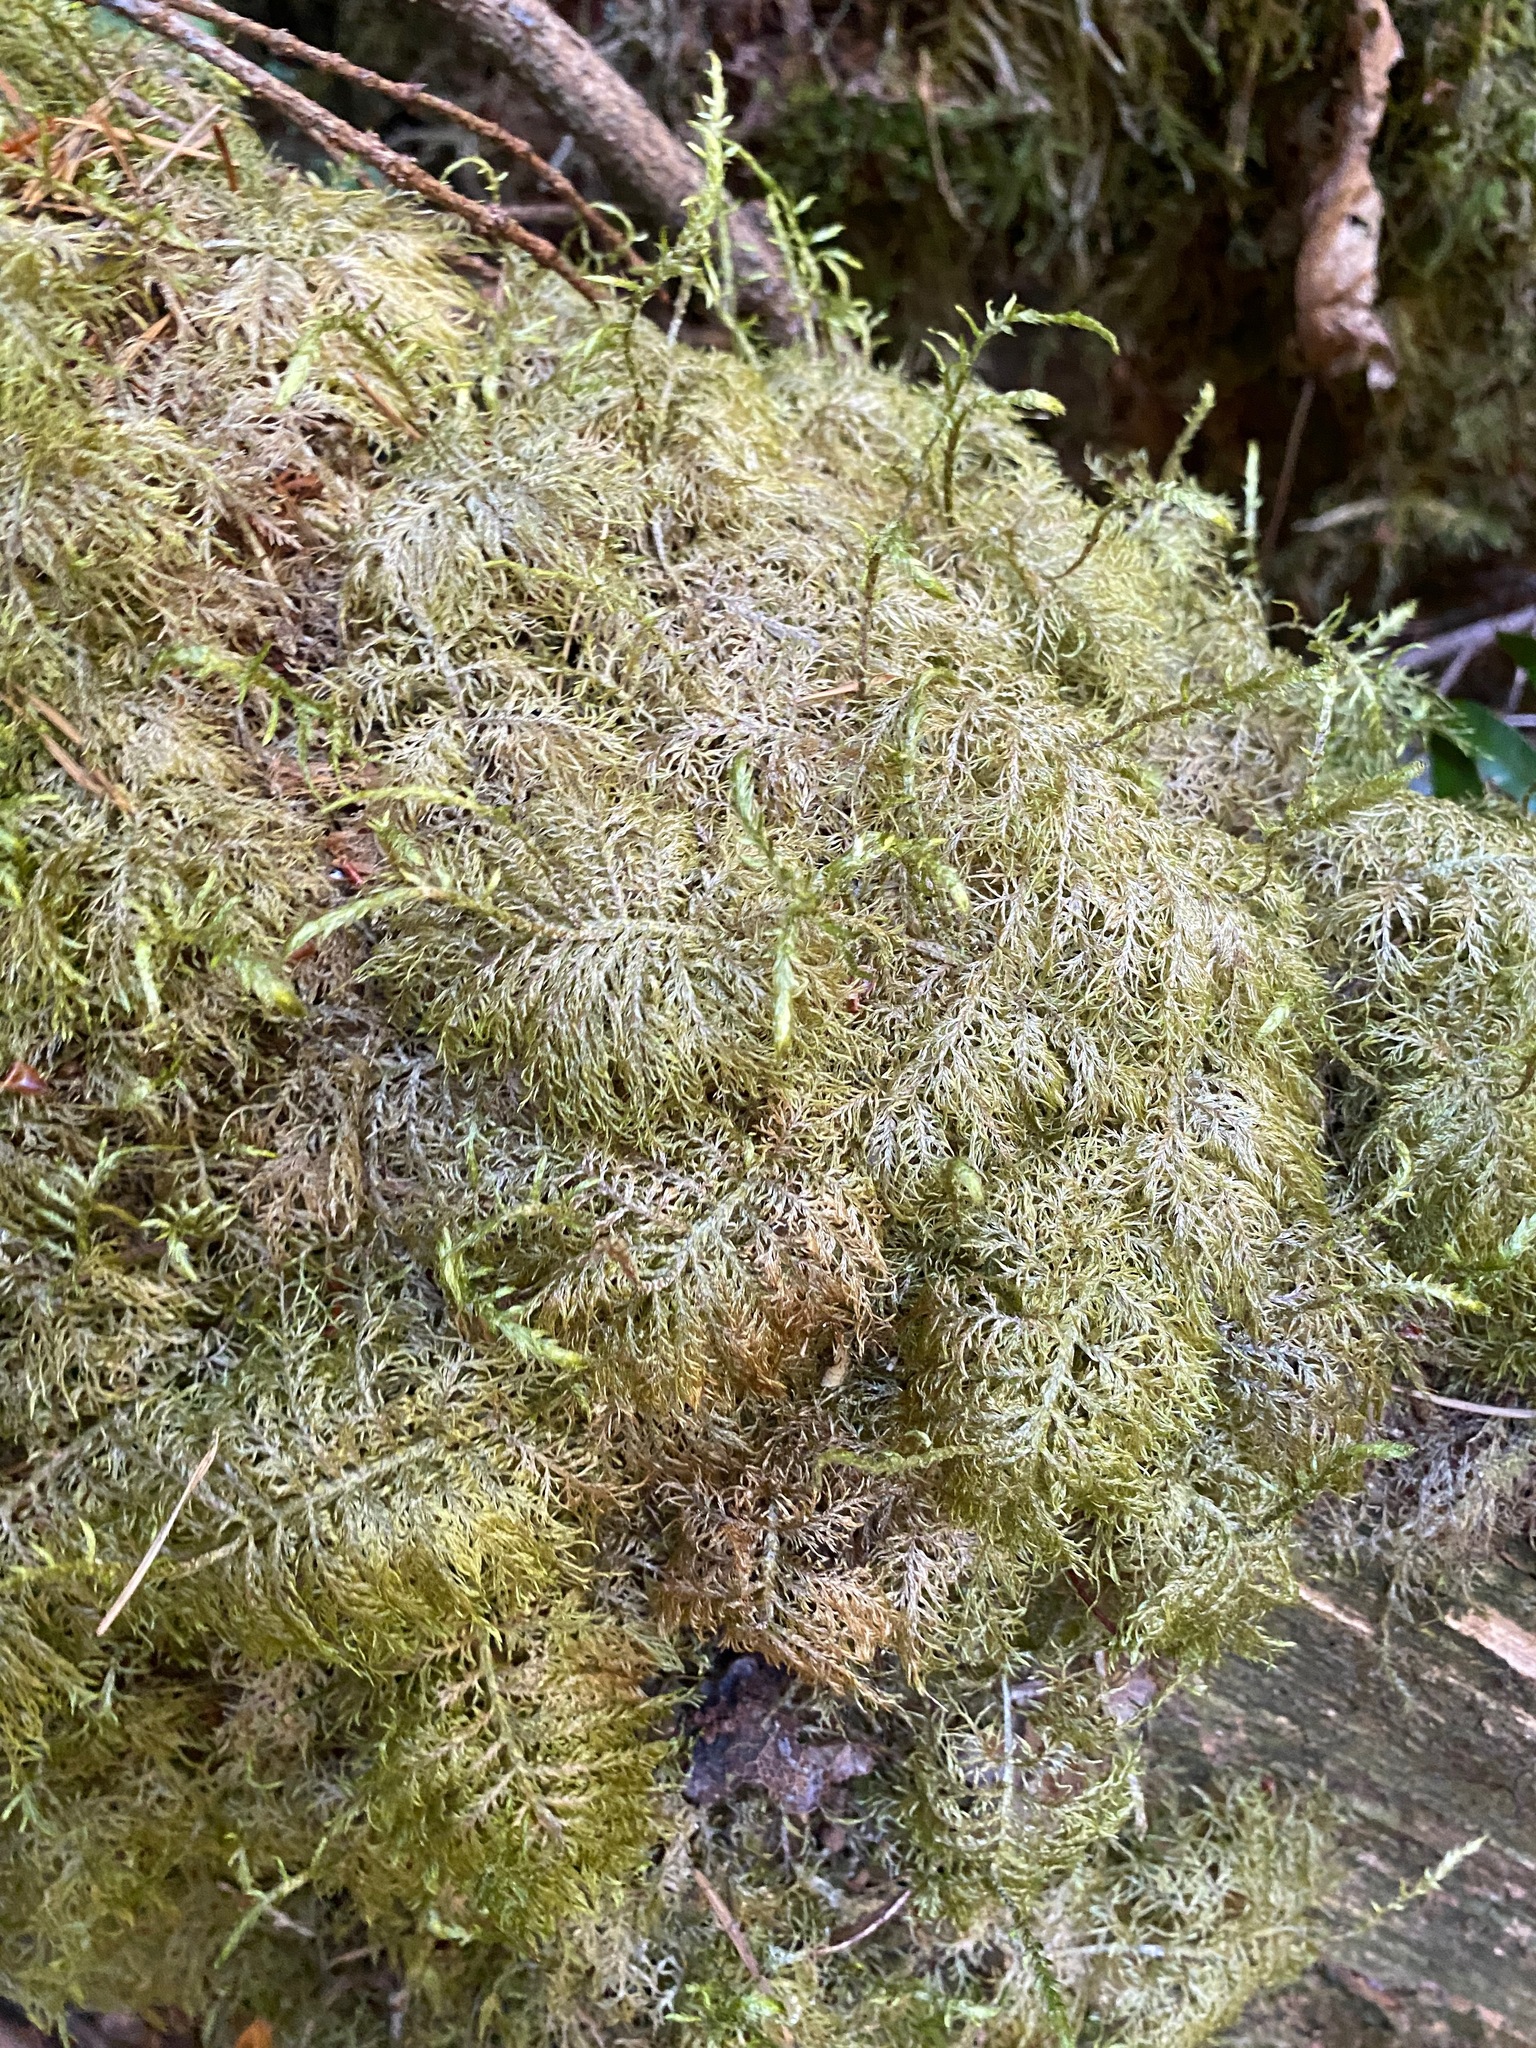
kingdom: Plantae
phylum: Bryophyta
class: Bryopsida
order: Hypnales
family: Hylocomiaceae
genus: Hylocomium
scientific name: Hylocomium splendens
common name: Stairstep moss
